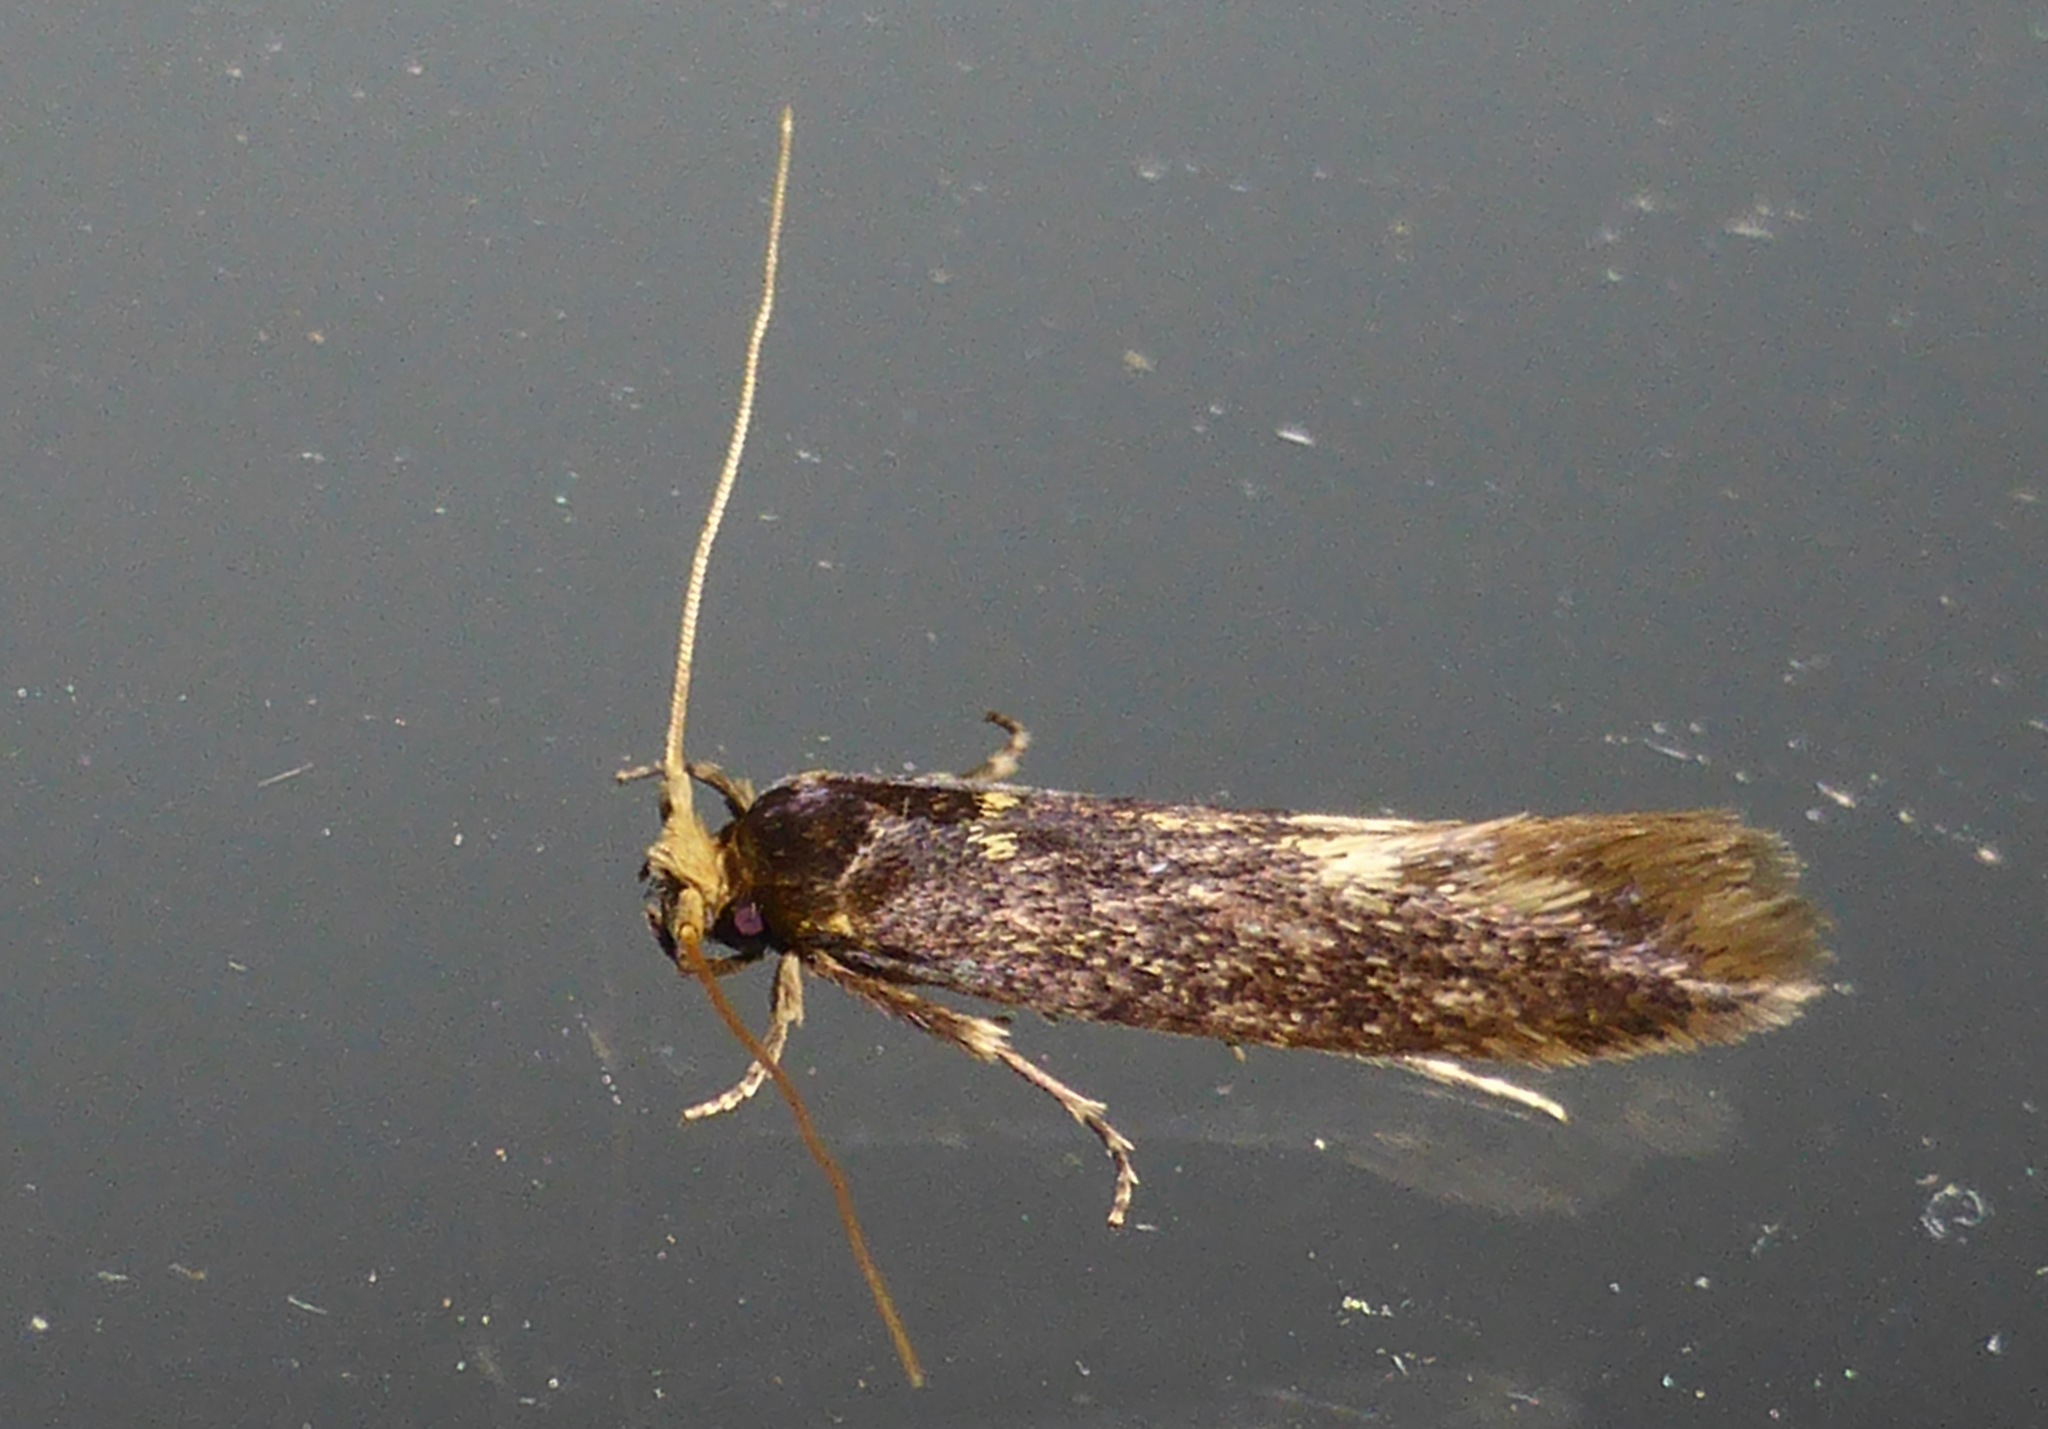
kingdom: Animalia
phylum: Arthropoda
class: Insecta
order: Lepidoptera
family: Tineidae
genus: Opogona
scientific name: Opogona omoscopa
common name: Moth
